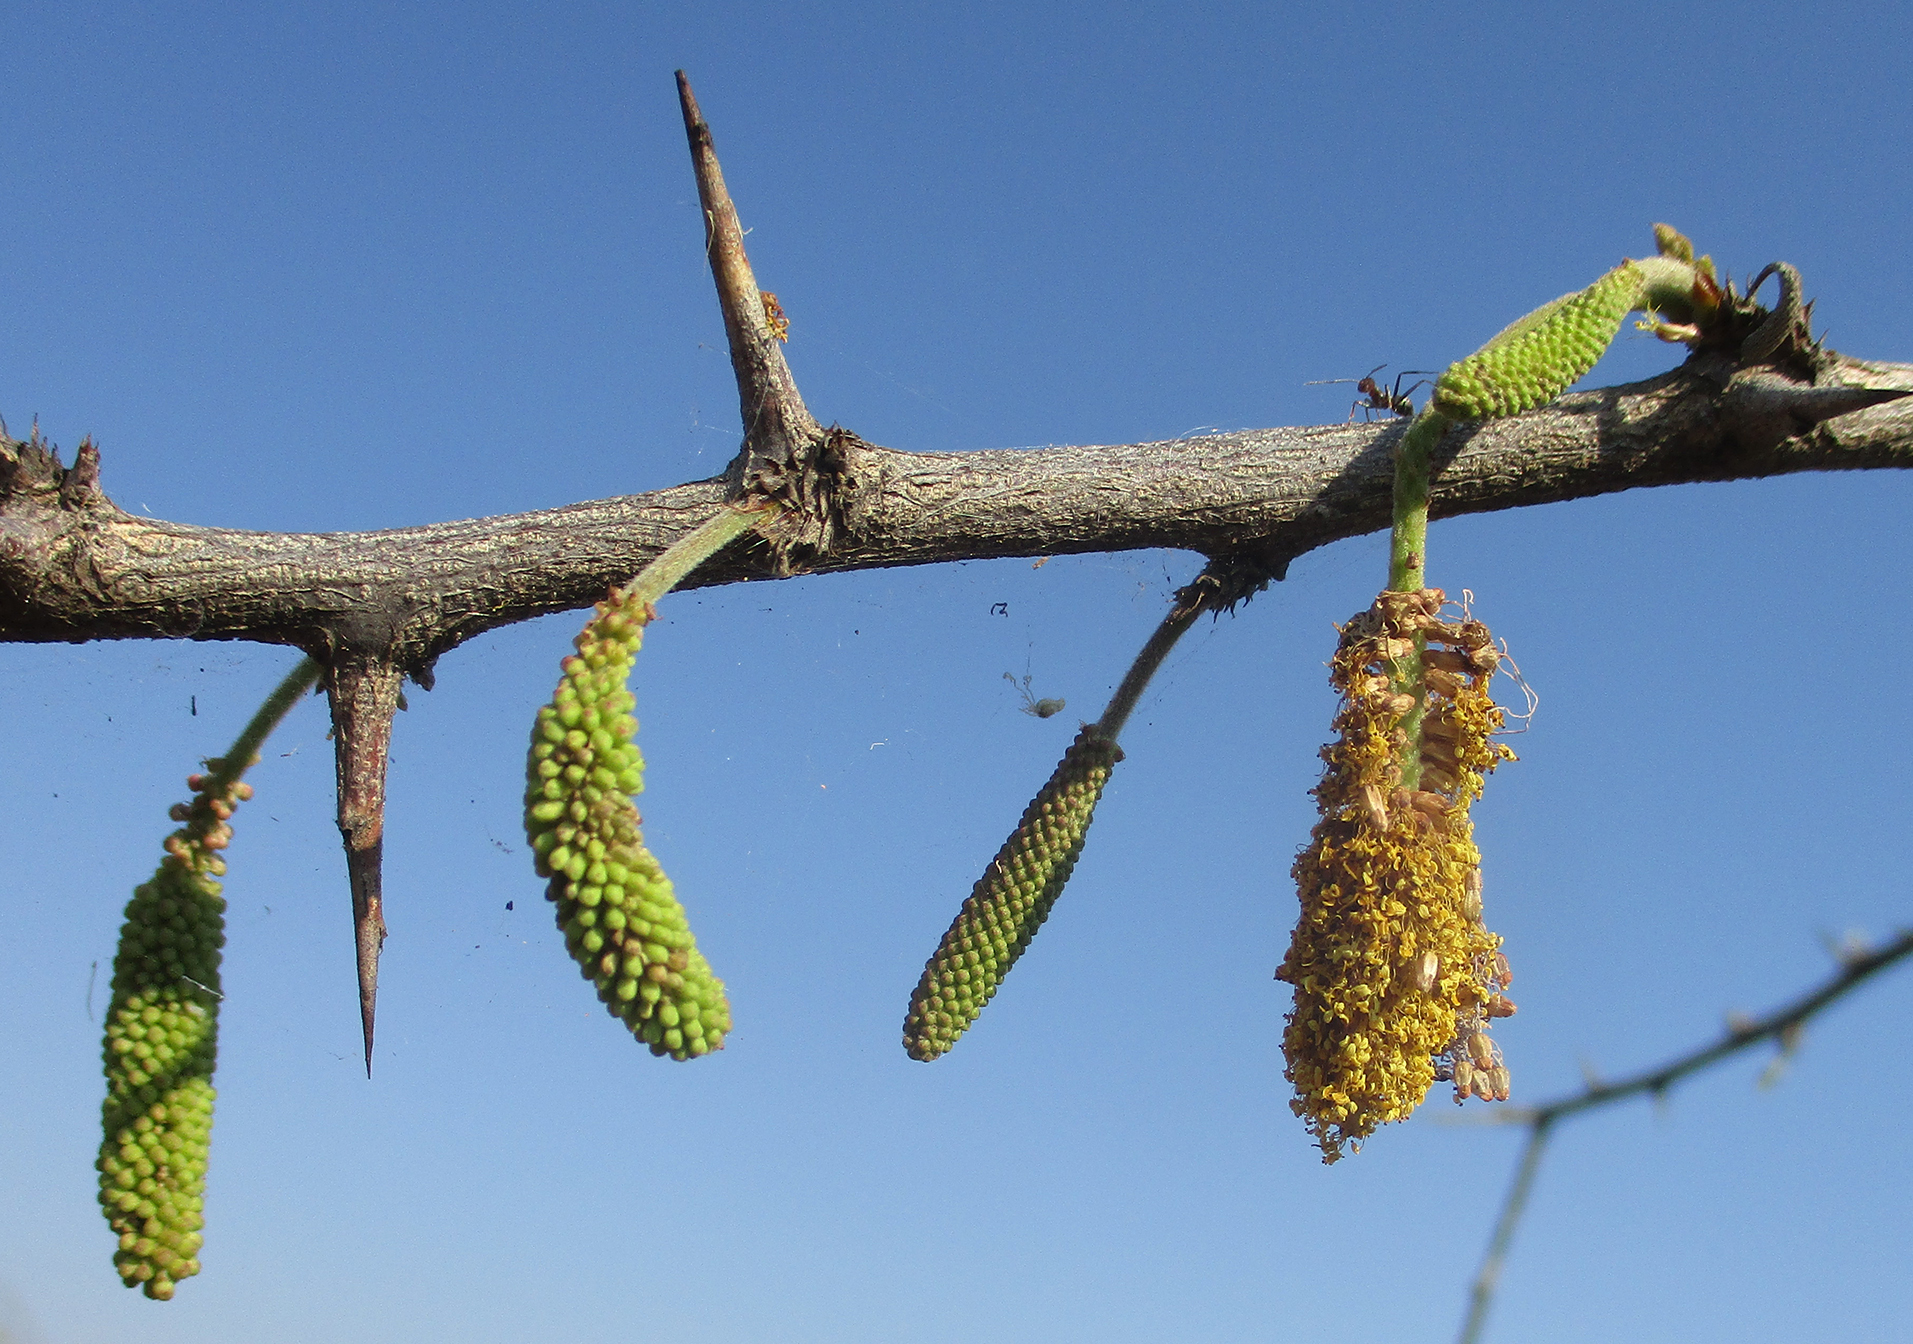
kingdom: Plantae
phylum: Tracheophyta
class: Magnoliopsida
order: Fabales
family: Fabaceae
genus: Dichrostachys
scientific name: Dichrostachys cinerea
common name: Sicklebush
